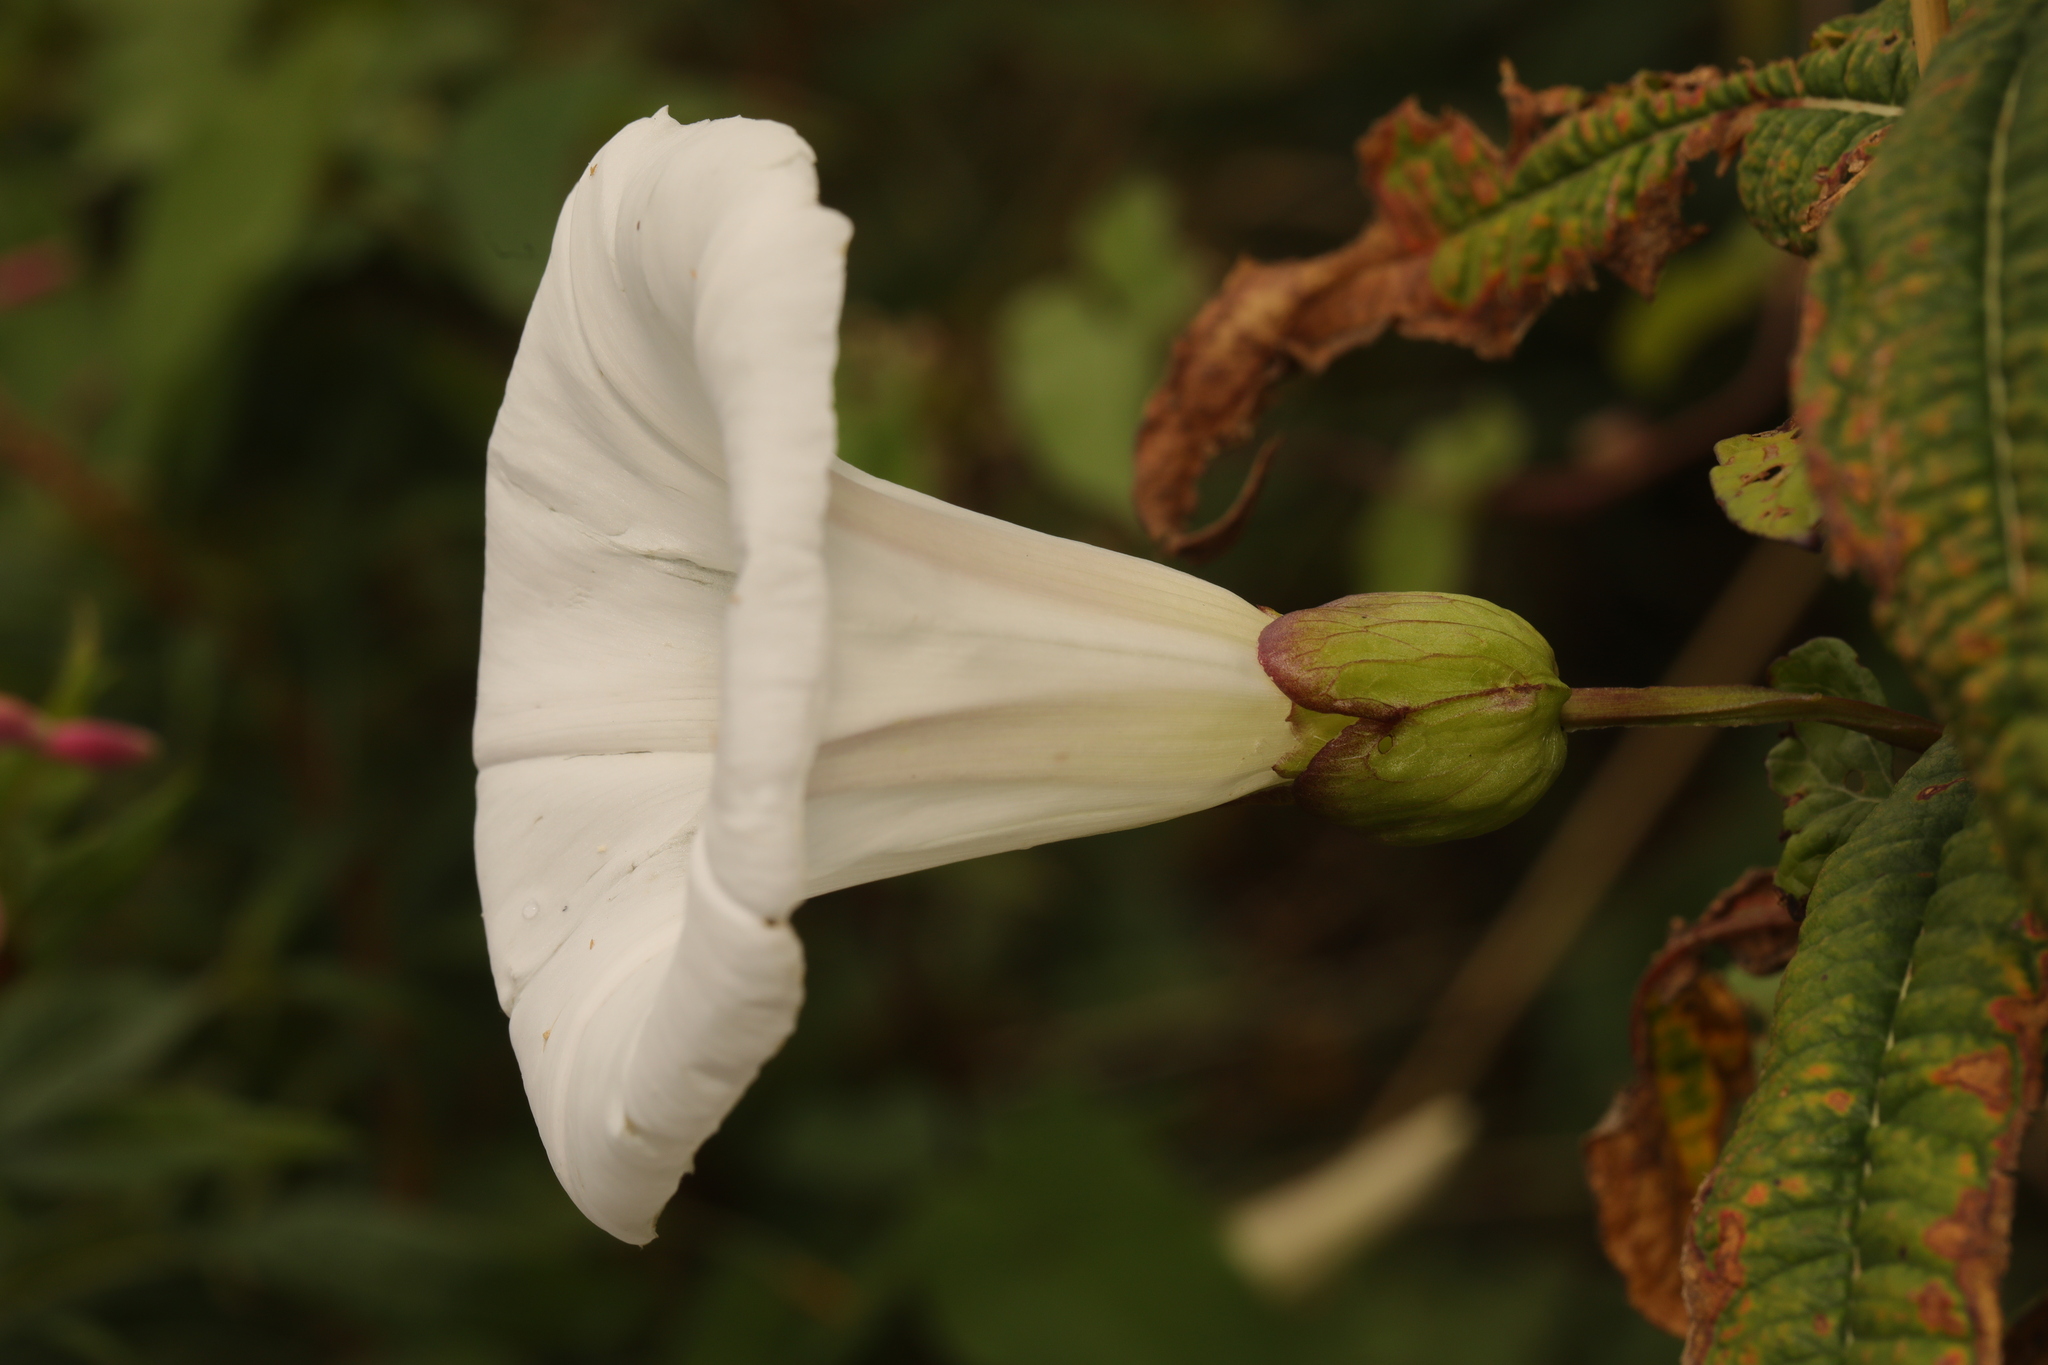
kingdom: Plantae
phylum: Tracheophyta
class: Magnoliopsida
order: Solanales
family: Convolvulaceae
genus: Calystegia
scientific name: Calystegia silvatica
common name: Large bindweed
